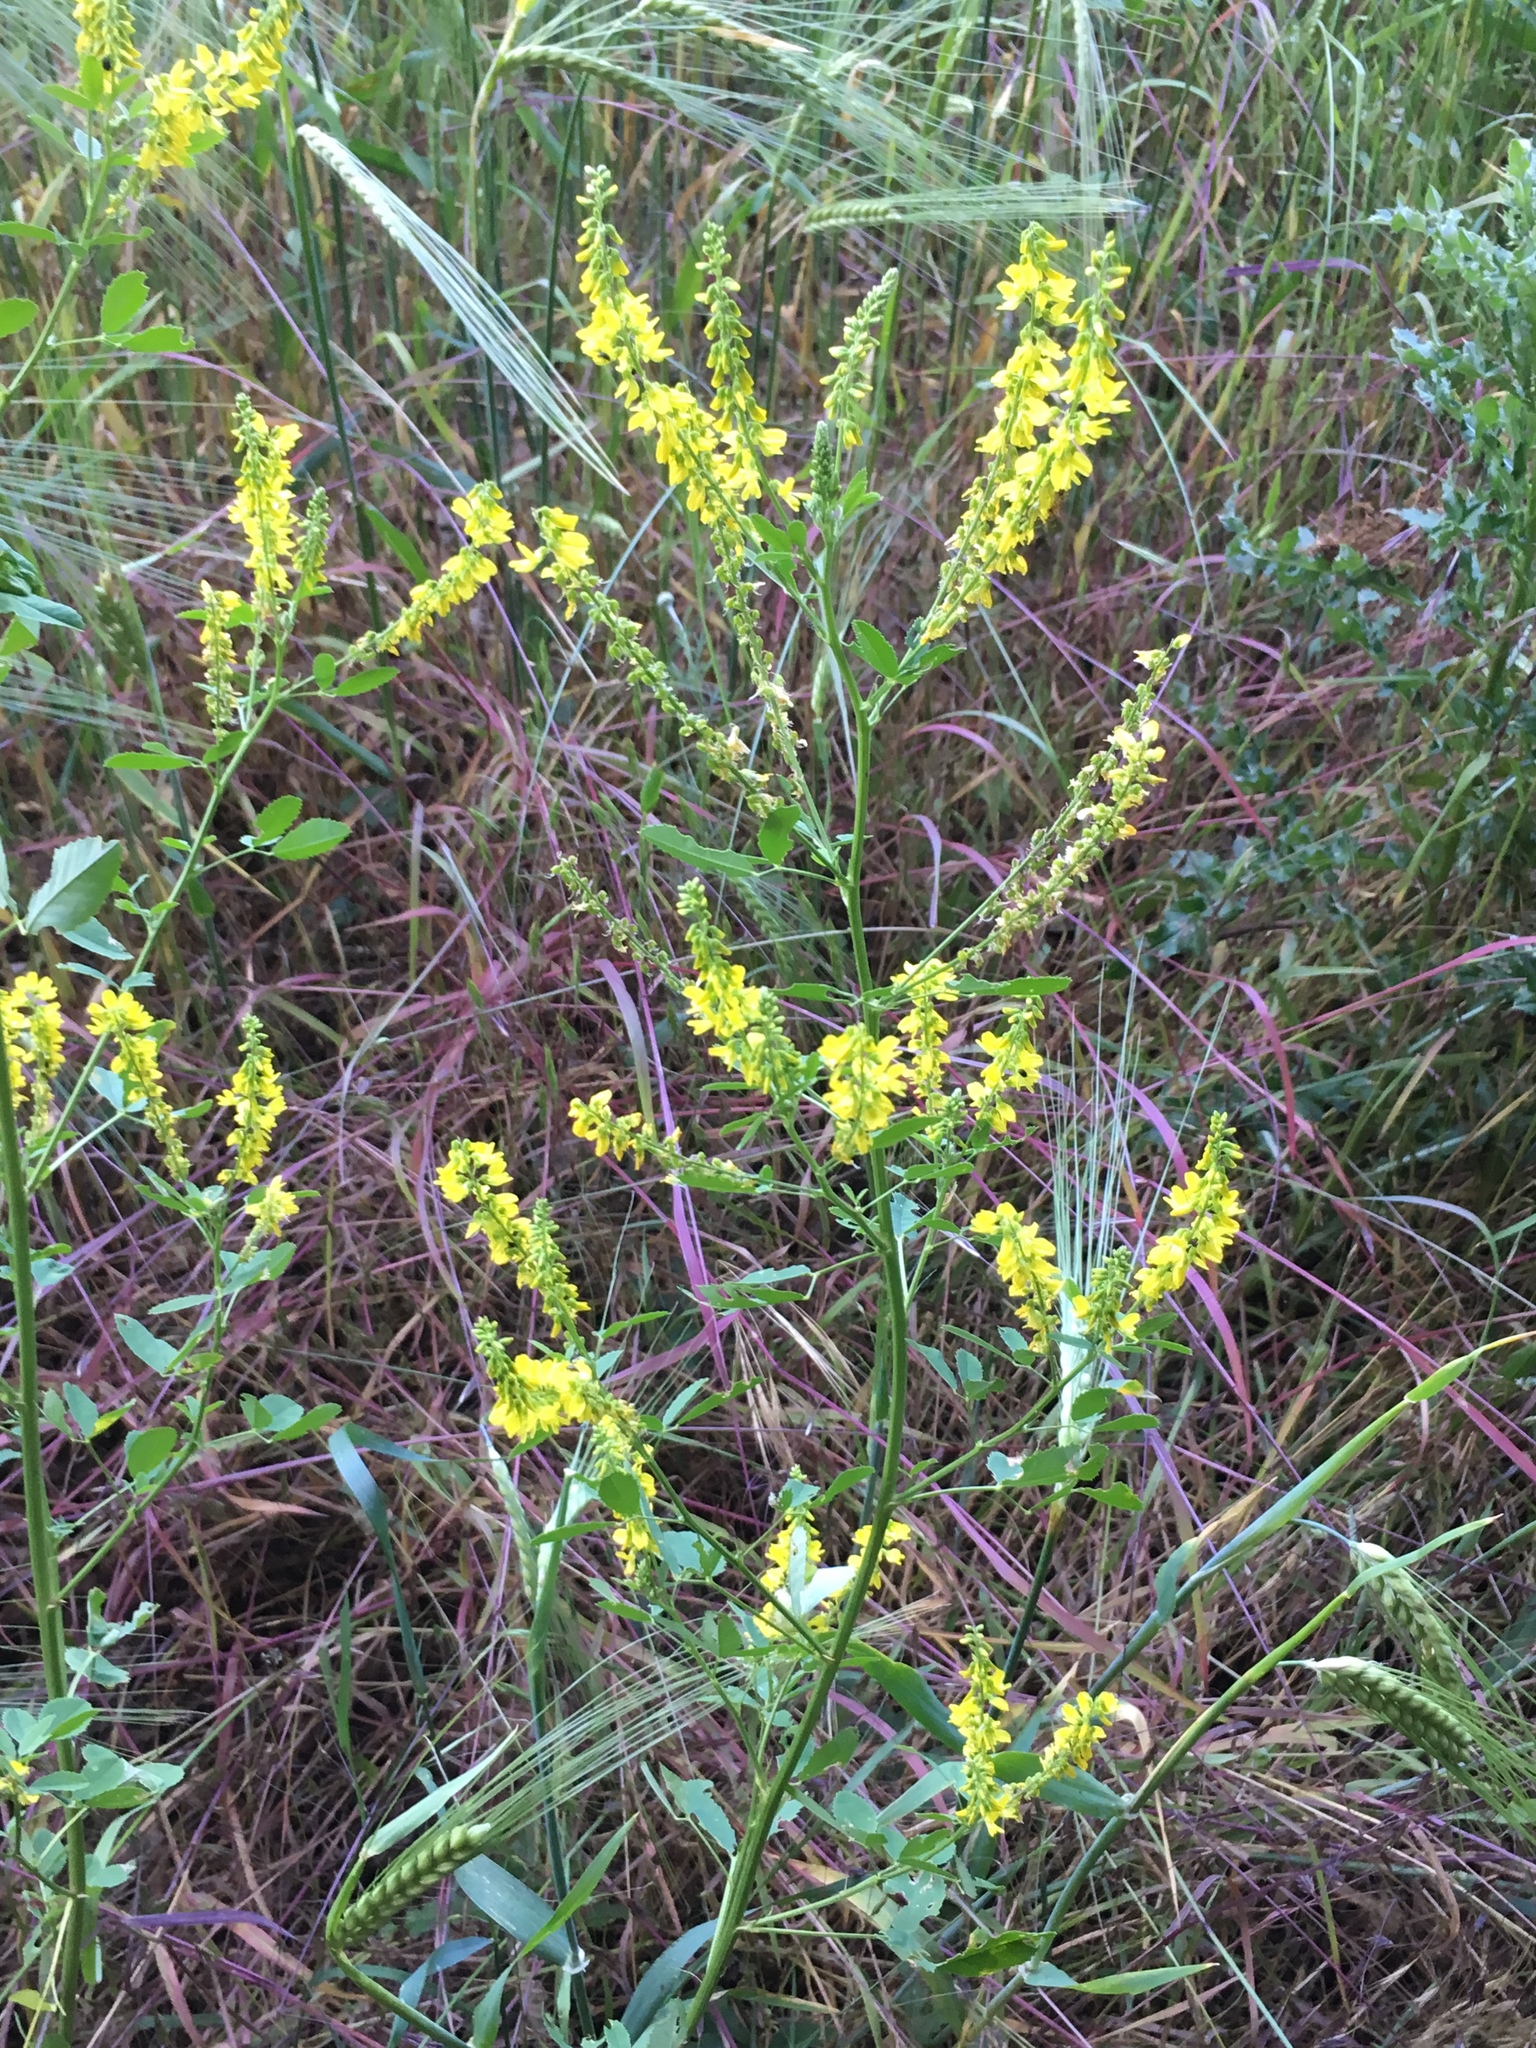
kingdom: Plantae
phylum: Tracheophyta
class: Magnoliopsida
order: Fabales
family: Fabaceae
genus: Melilotus
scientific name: Melilotus officinalis
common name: Sweetclover
